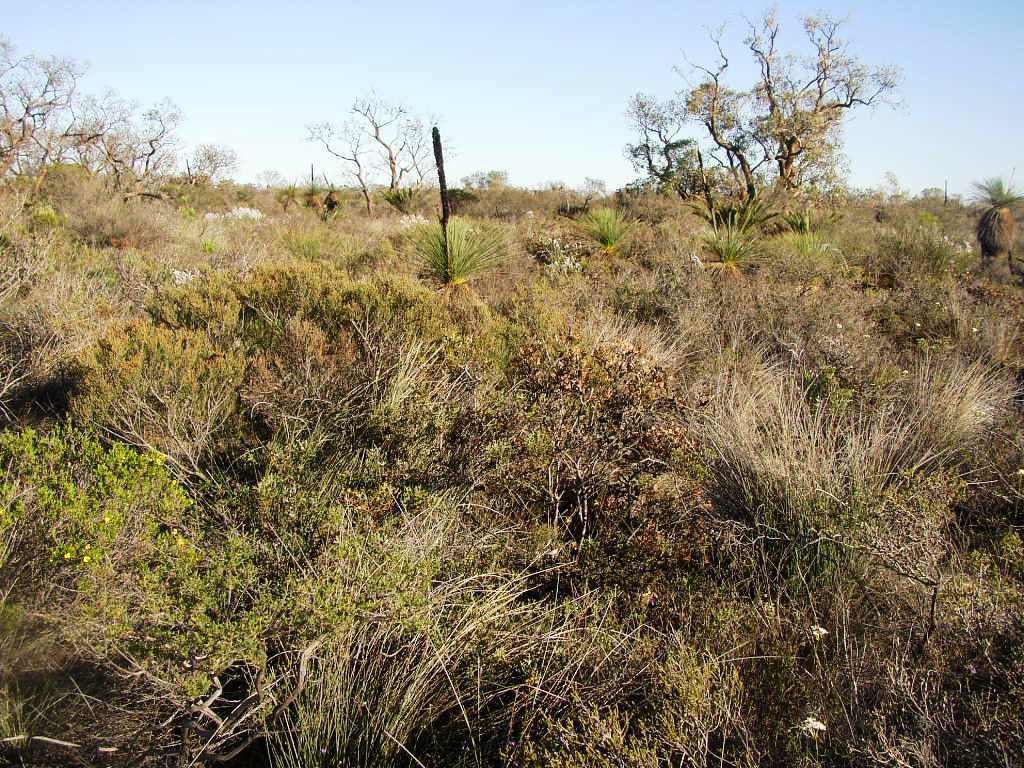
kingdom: Plantae
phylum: Tracheophyta
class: Liliopsida
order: Asparagales
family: Asphodelaceae
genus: Xanthorrhoea
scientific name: Xanthorrhoea drummondii
